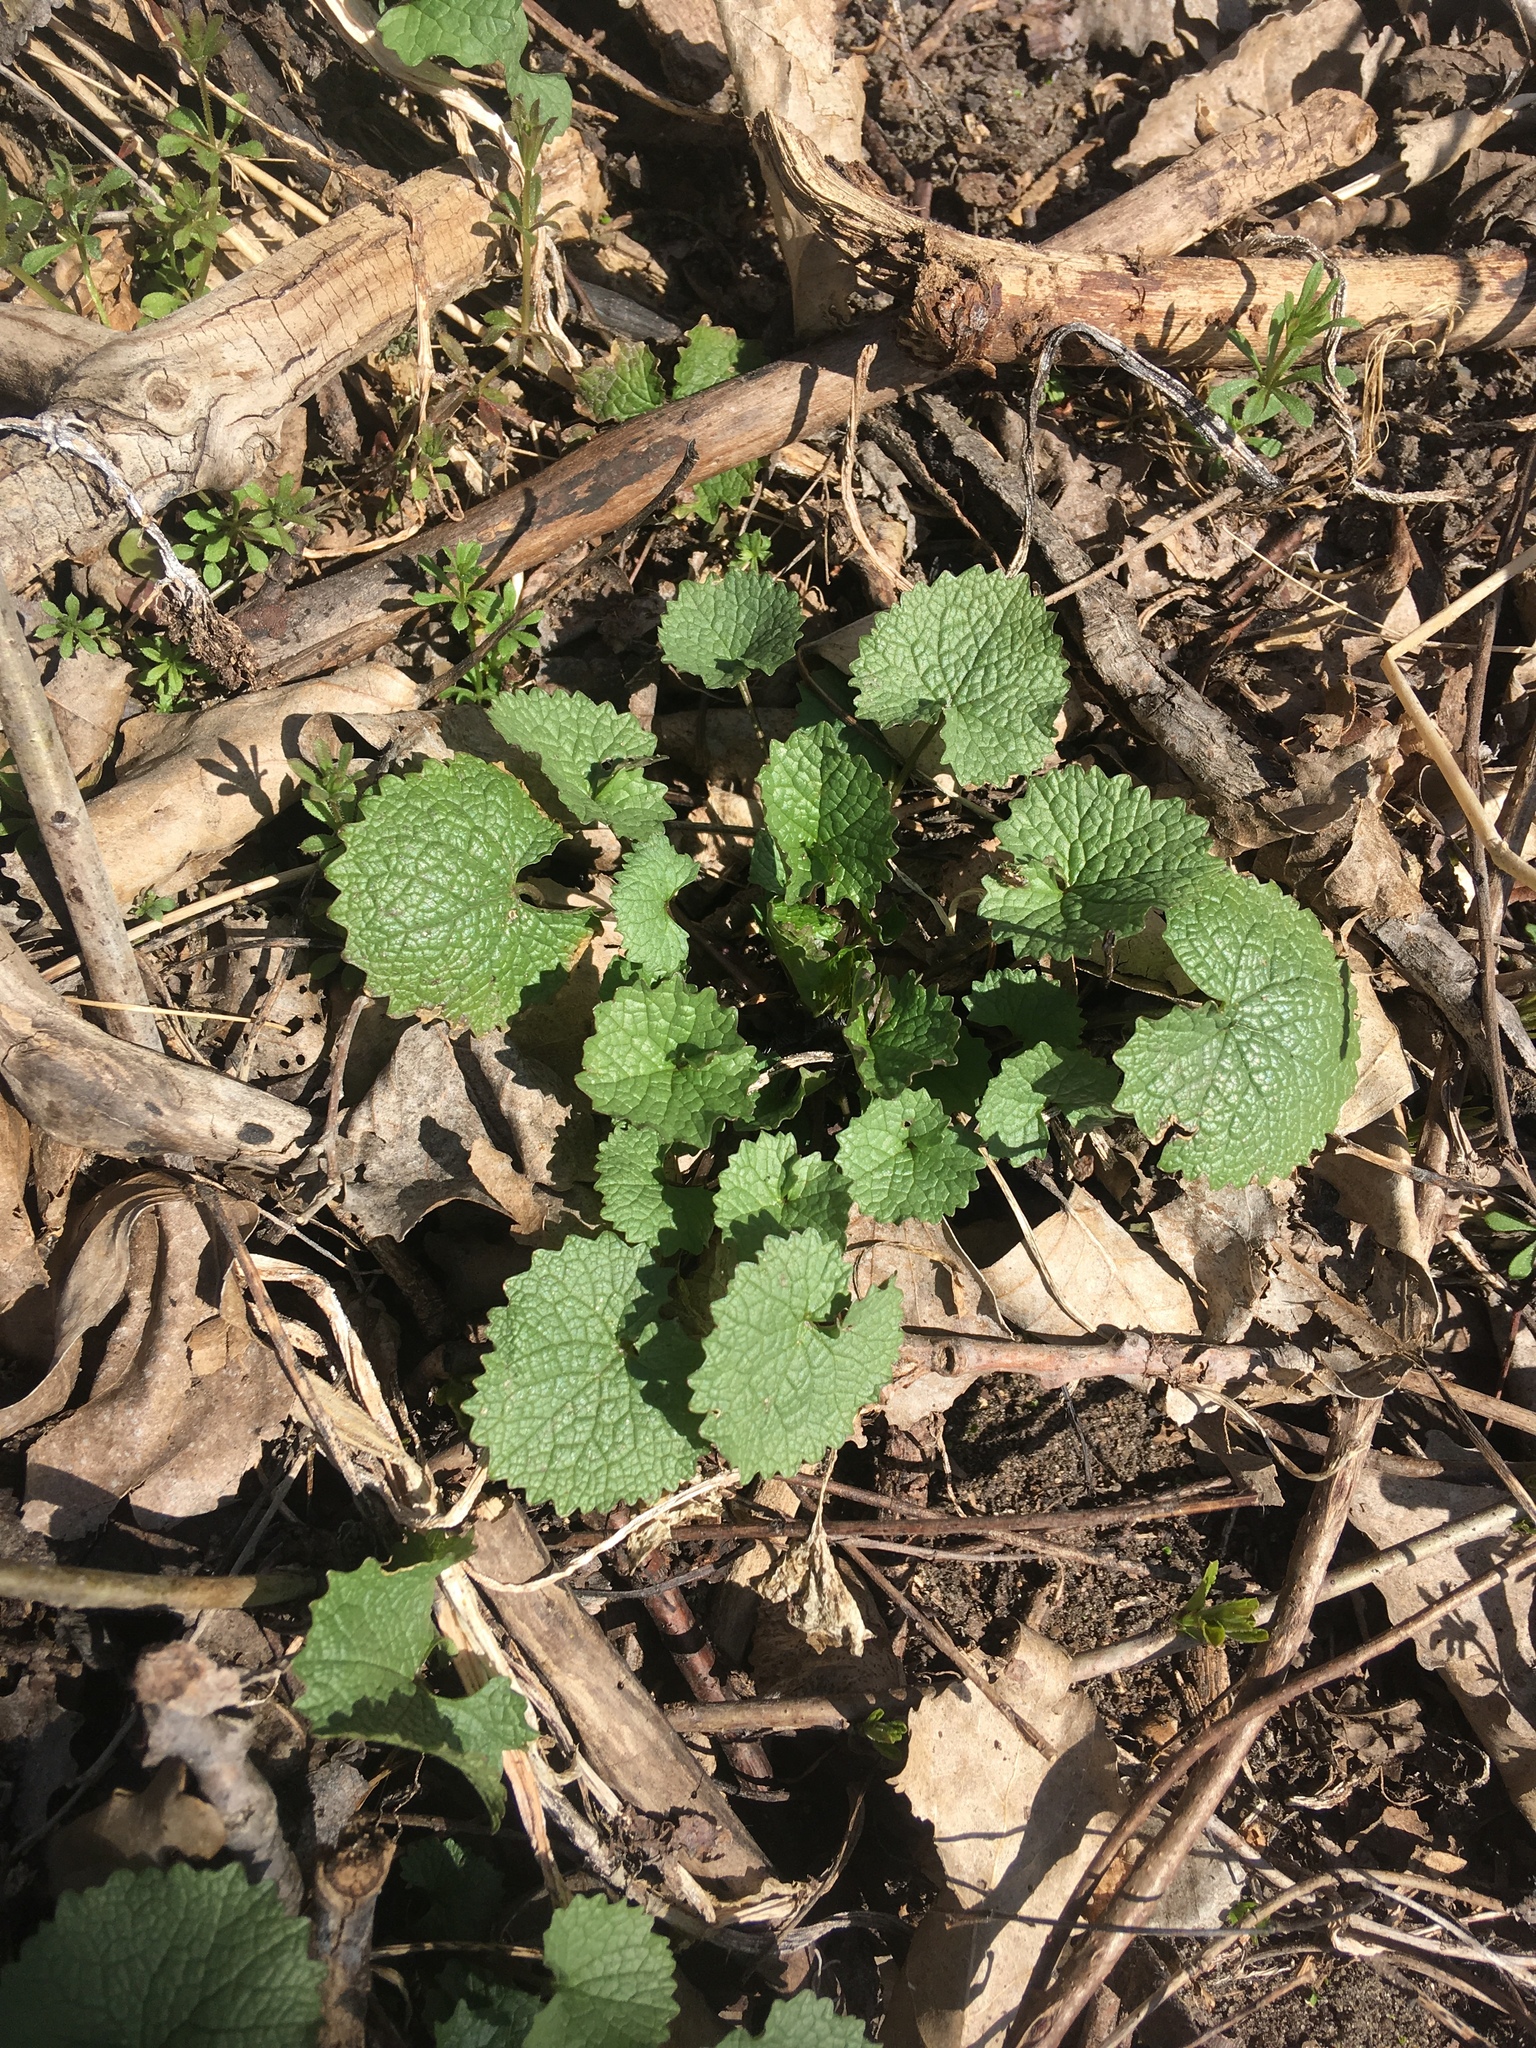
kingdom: Plantae
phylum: Tracheophyta
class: Magnoliopsida
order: Brassicales
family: Brassicaceae
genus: Alliaria
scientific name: Alliaria petiolata
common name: Garlic mustard
